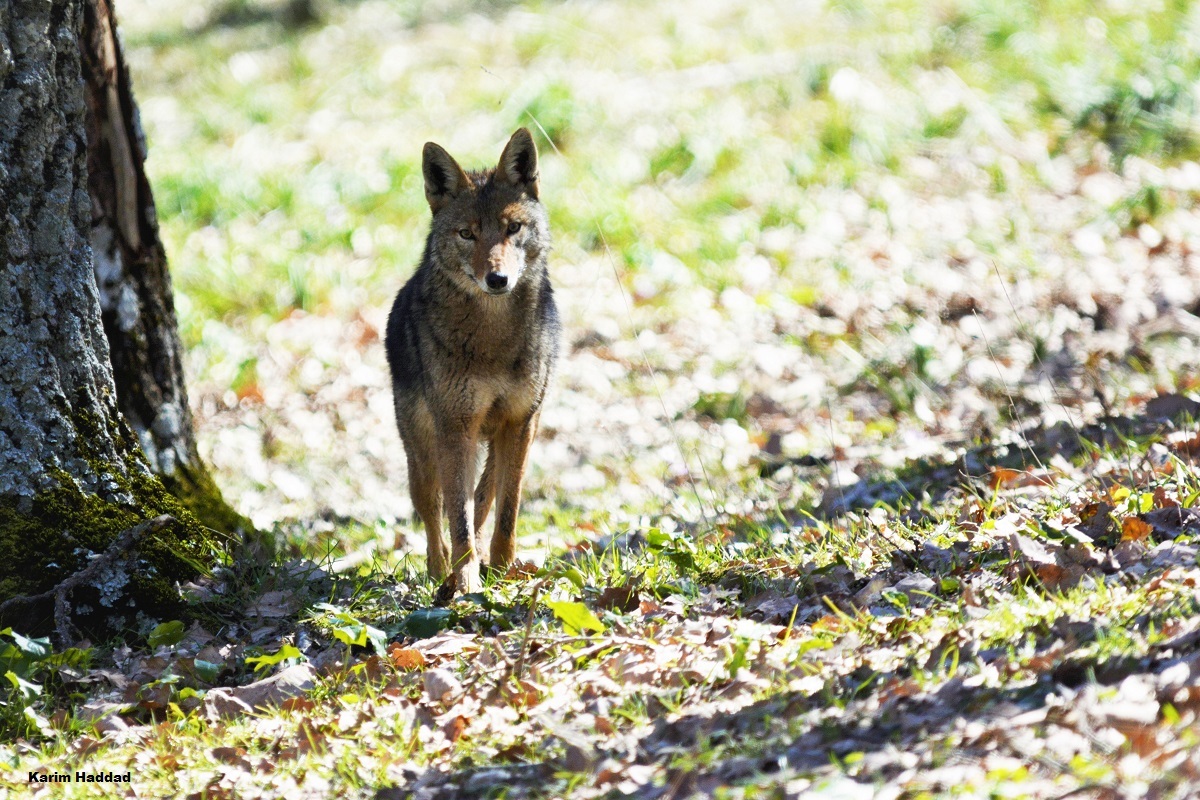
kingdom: Animalia
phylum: Chordata
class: Mammalia
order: Carnivora
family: Canidae
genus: Canis
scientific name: Canis lupaster
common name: African golden wolf
